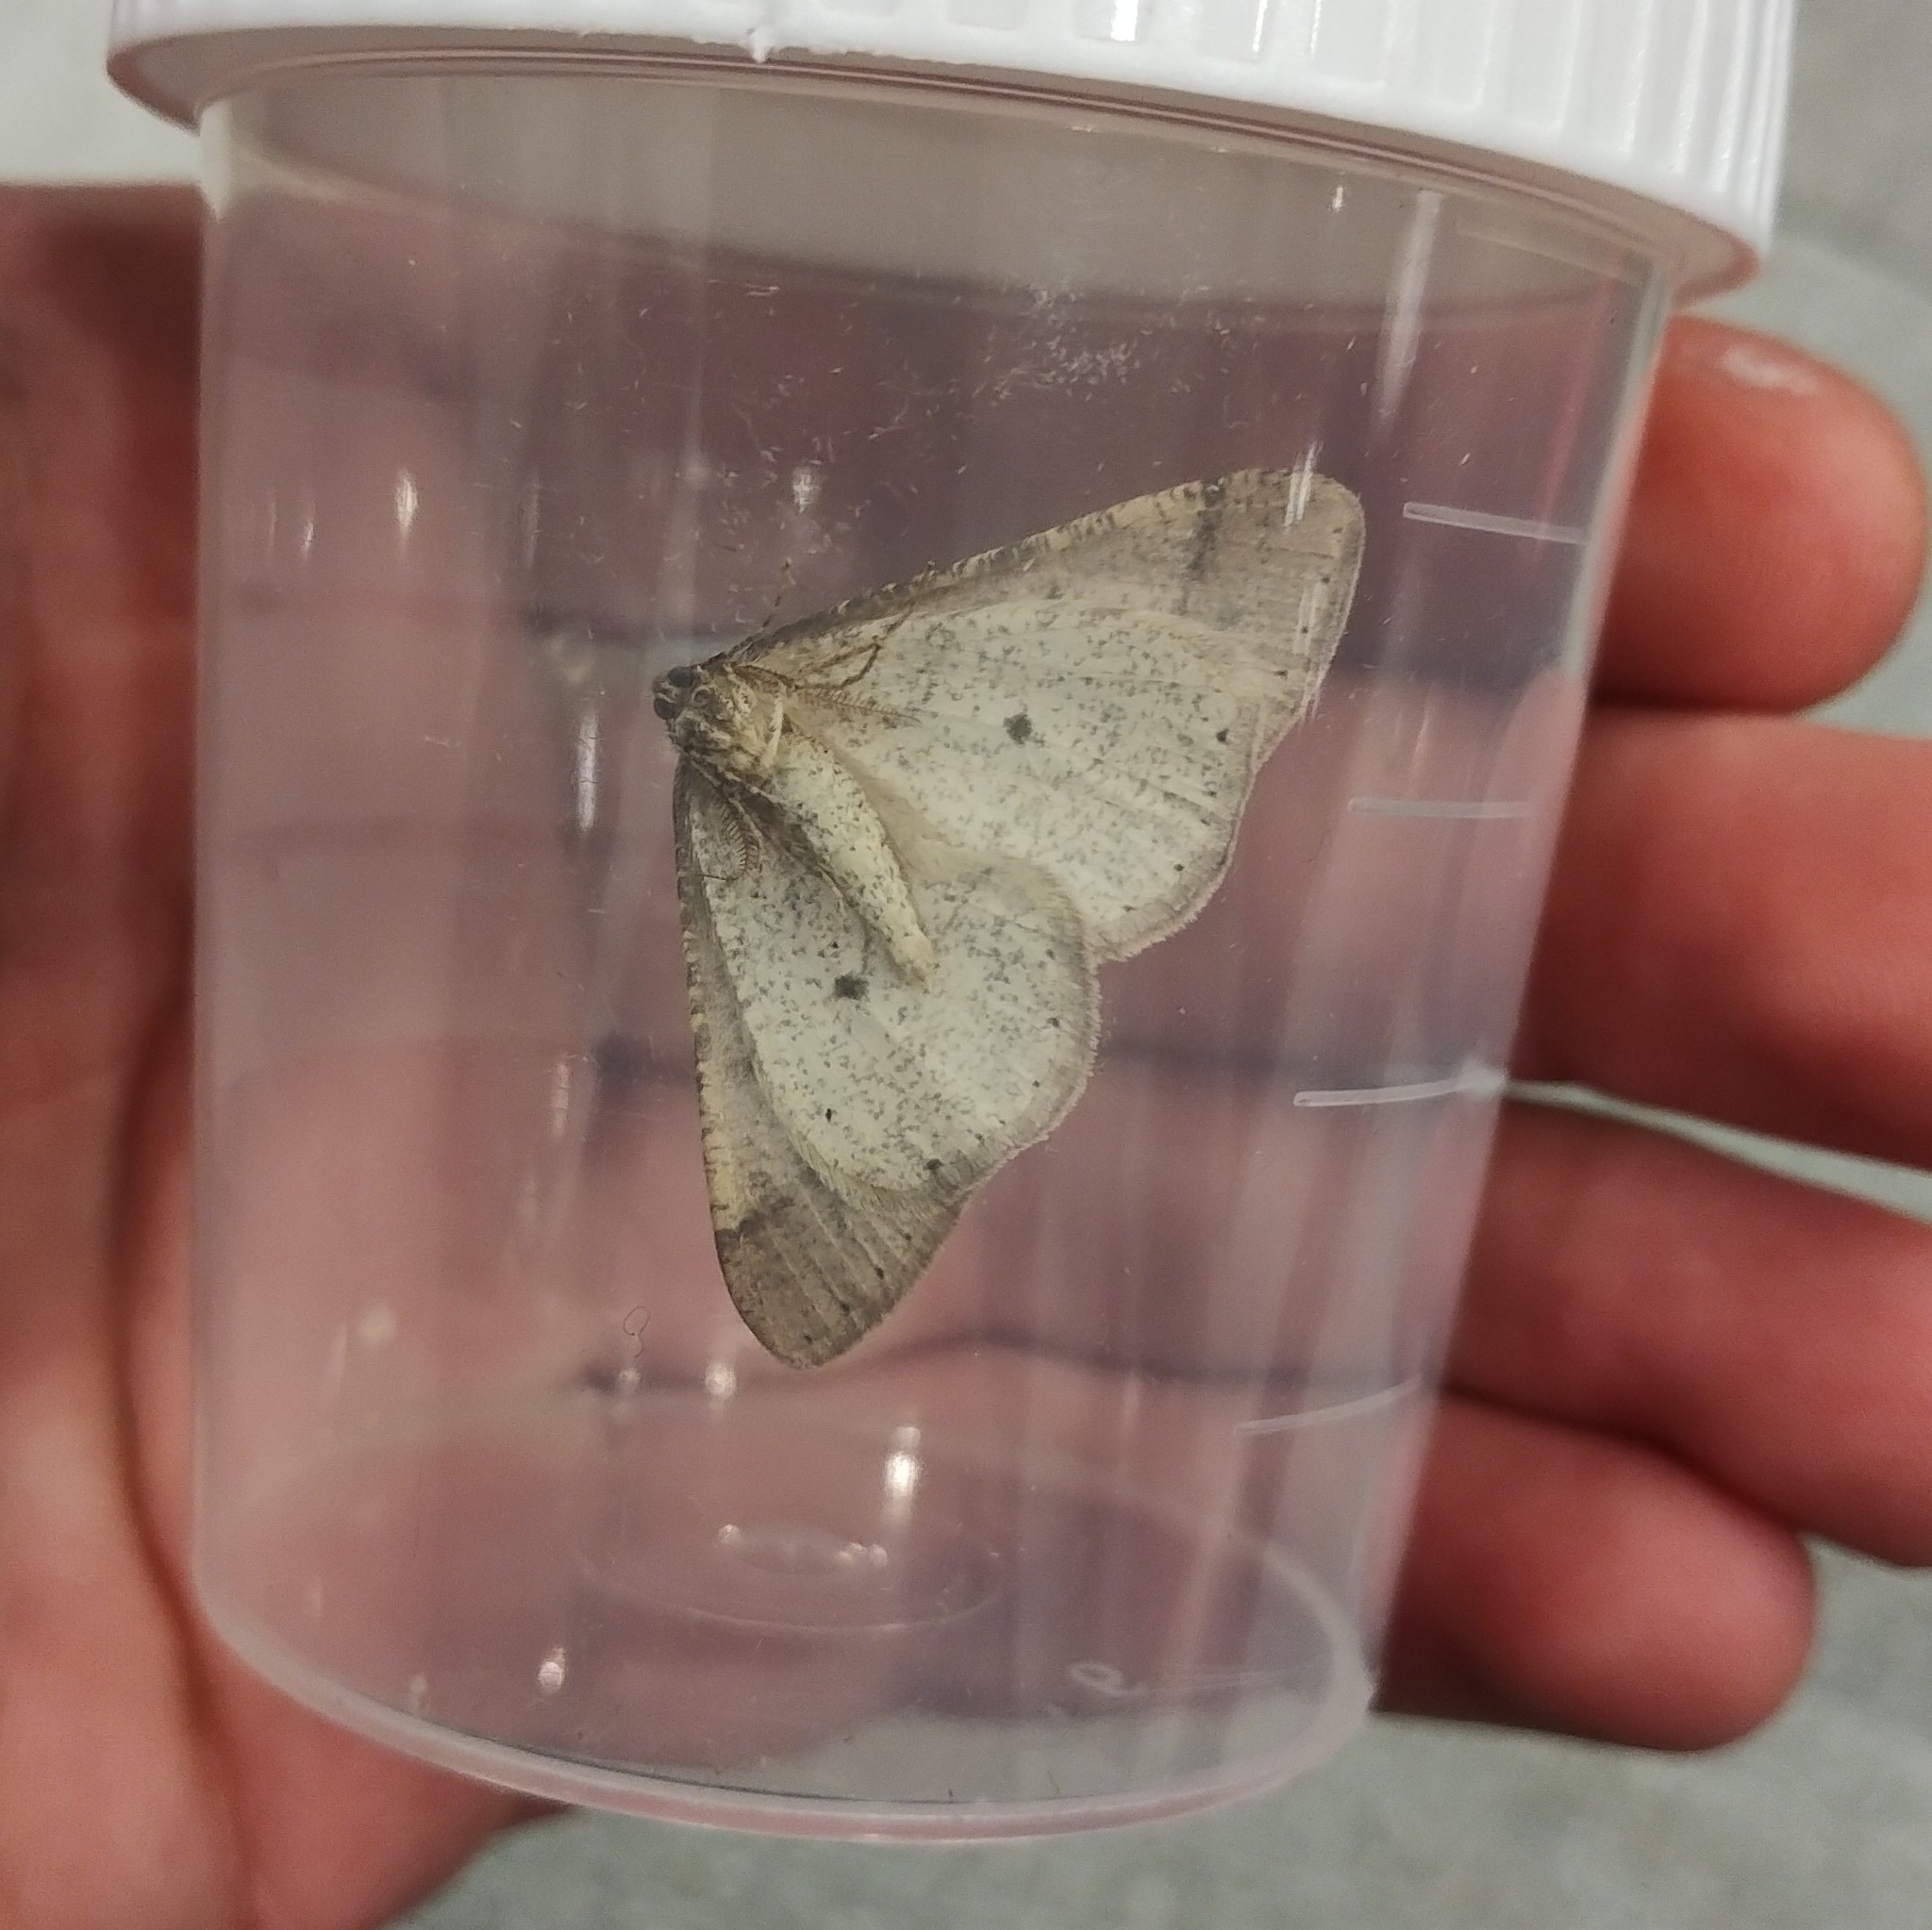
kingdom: Animalia
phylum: Arthropoda
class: Insecta
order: Lepidoptera
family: Geometridae
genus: Agriopis
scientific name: Agriopis marginaria
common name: Dotted border
